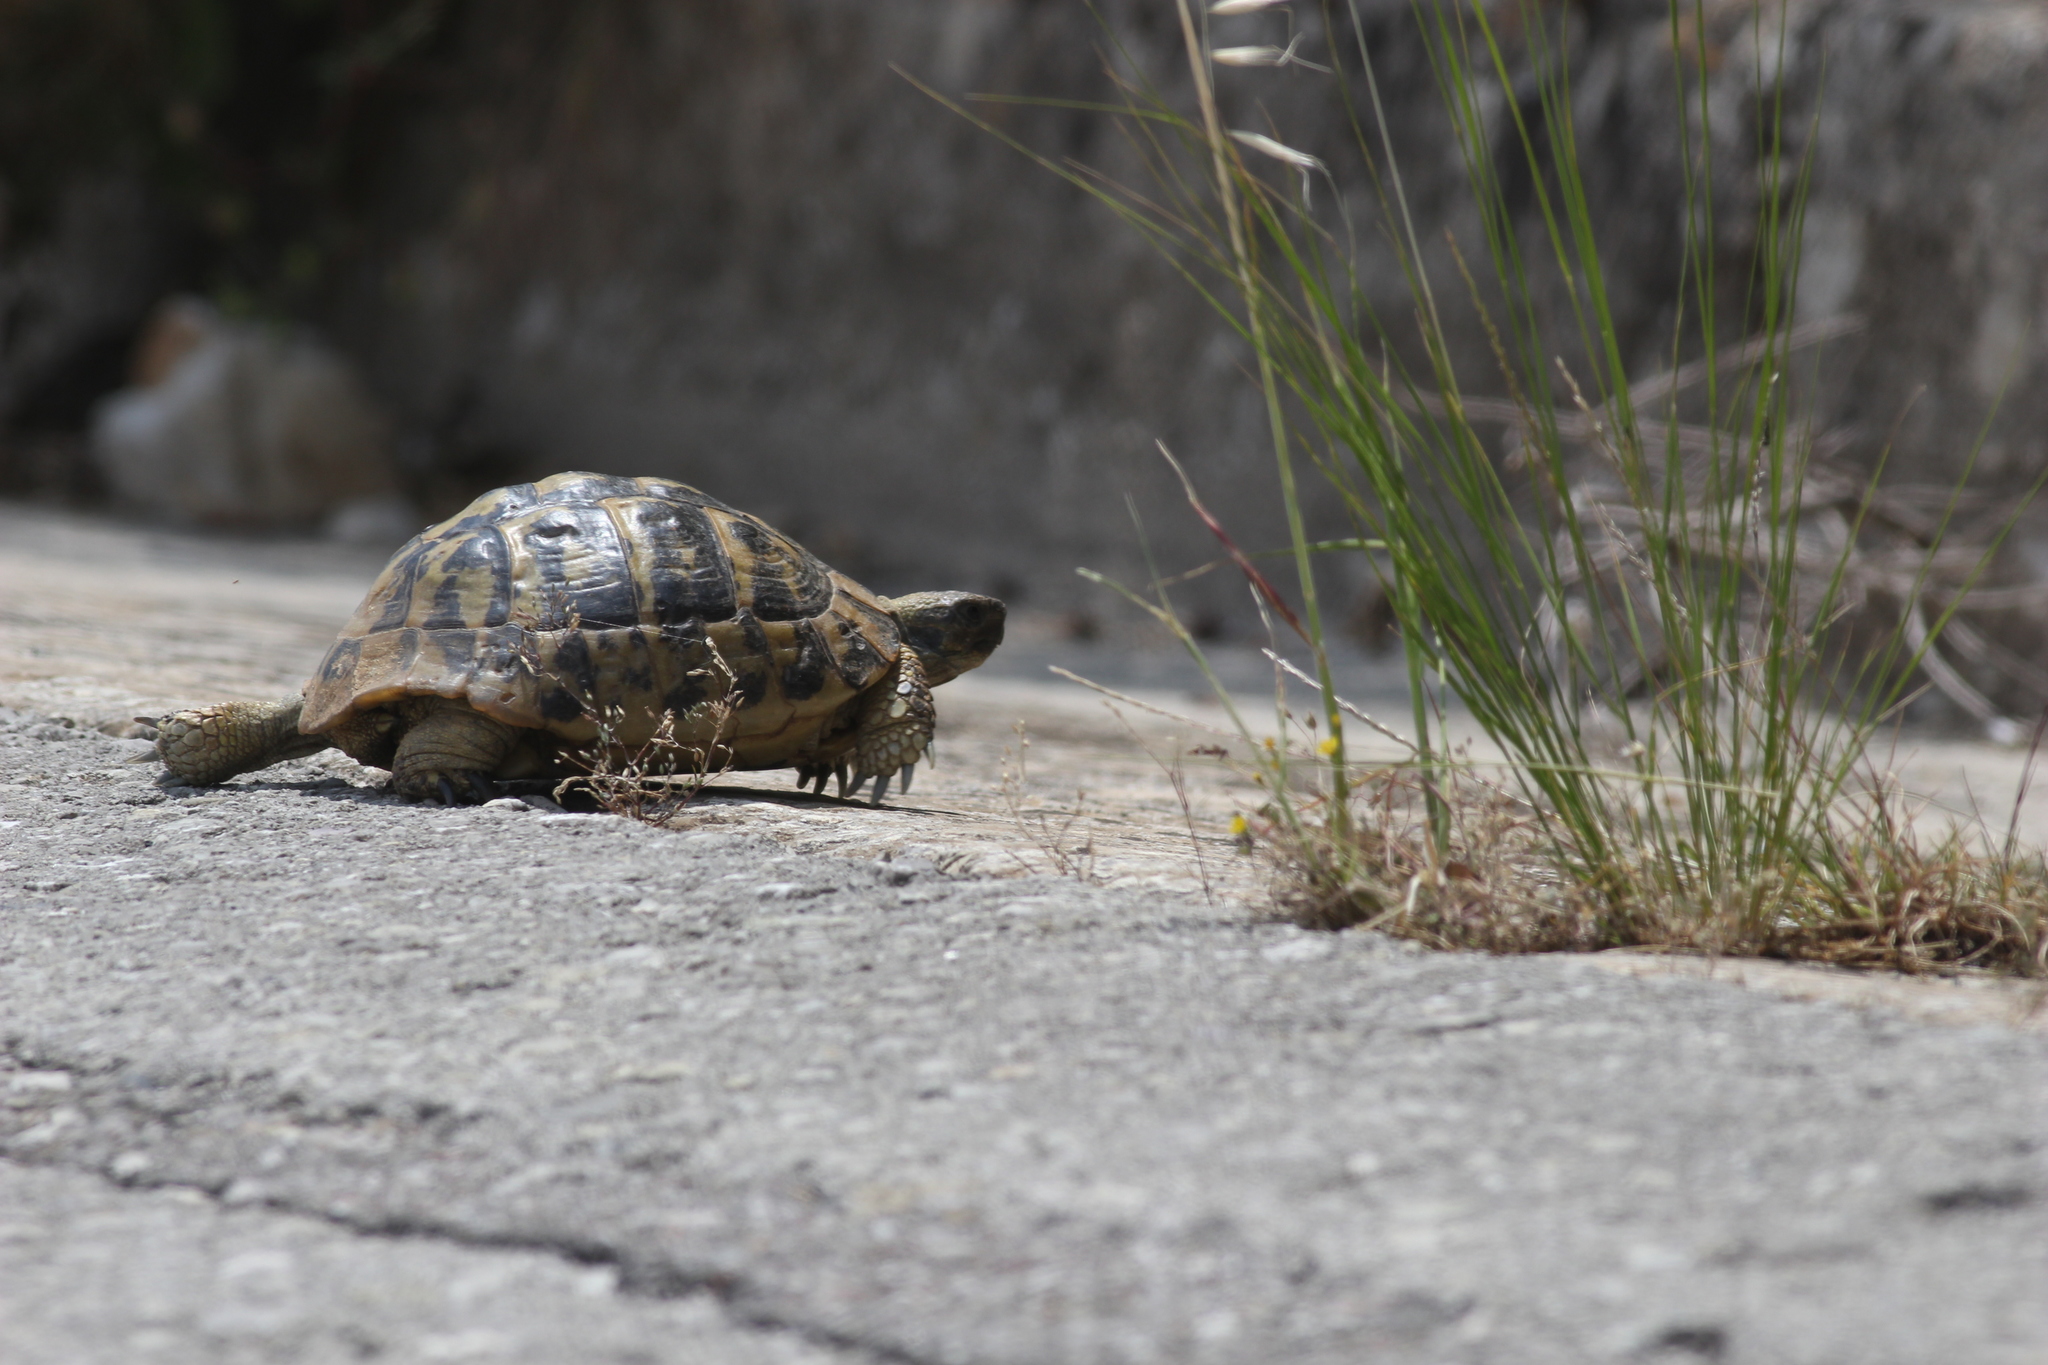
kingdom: Animalia
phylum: Chordata
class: Testudines
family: Testudinidae
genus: Testudo
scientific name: Testudo hermanni
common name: Hermann's tortoise
